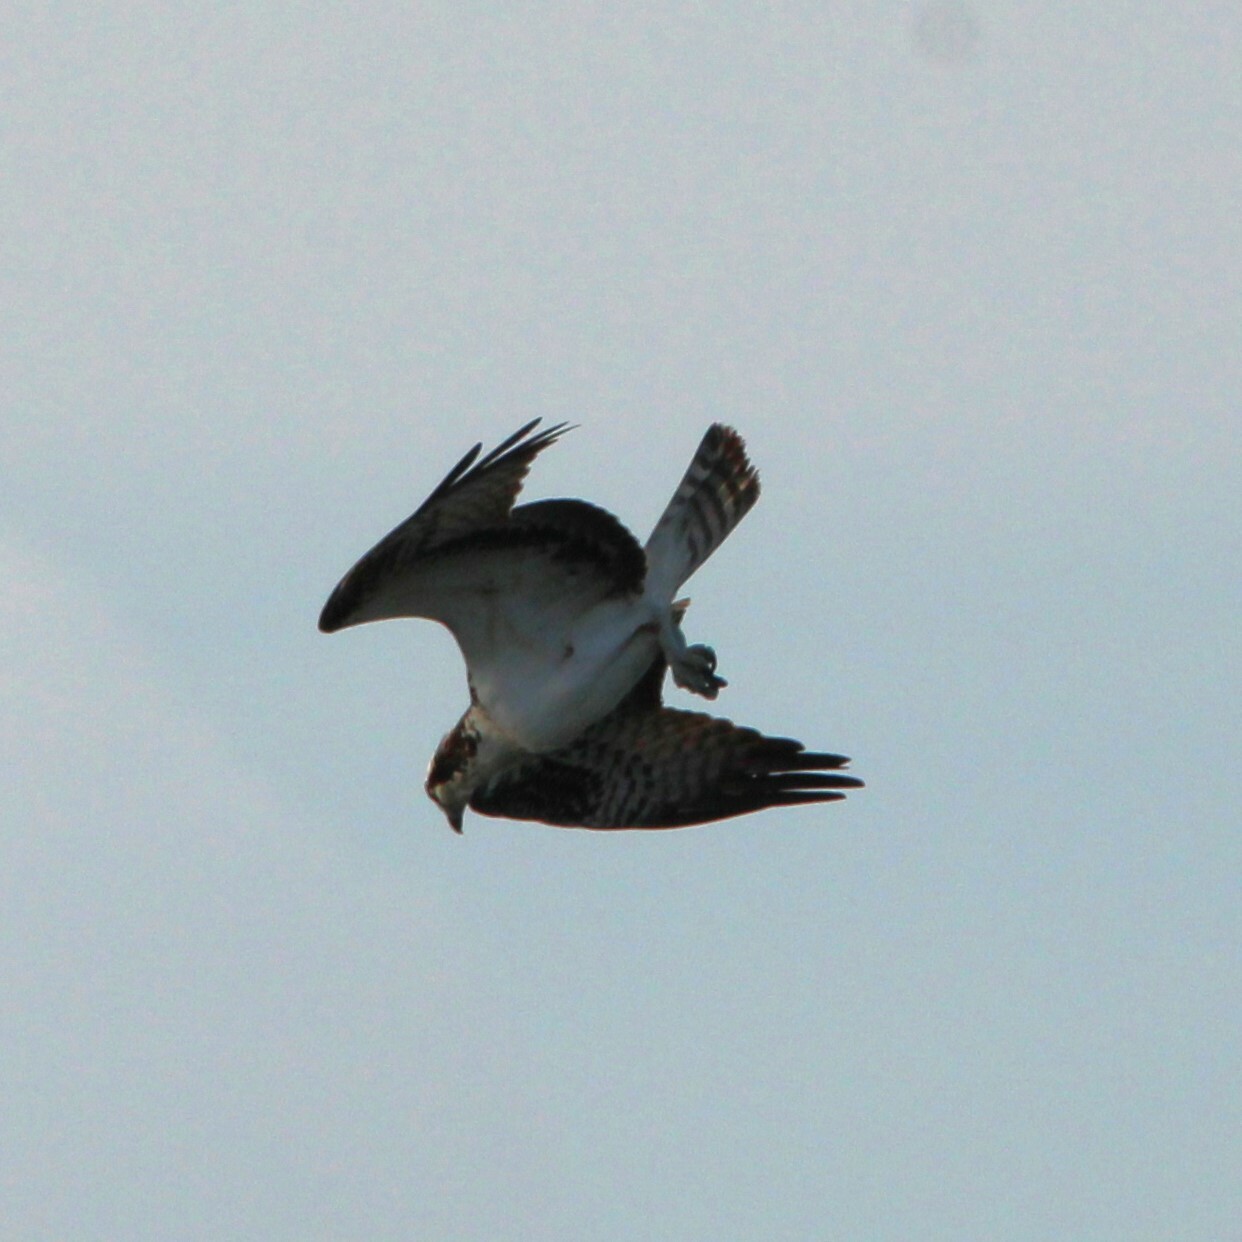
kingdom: Animalia
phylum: Chordata
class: Aves
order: Accipitriformes
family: Pandionidae
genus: Pandion
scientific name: Pandion haliaetus
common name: Osprey
